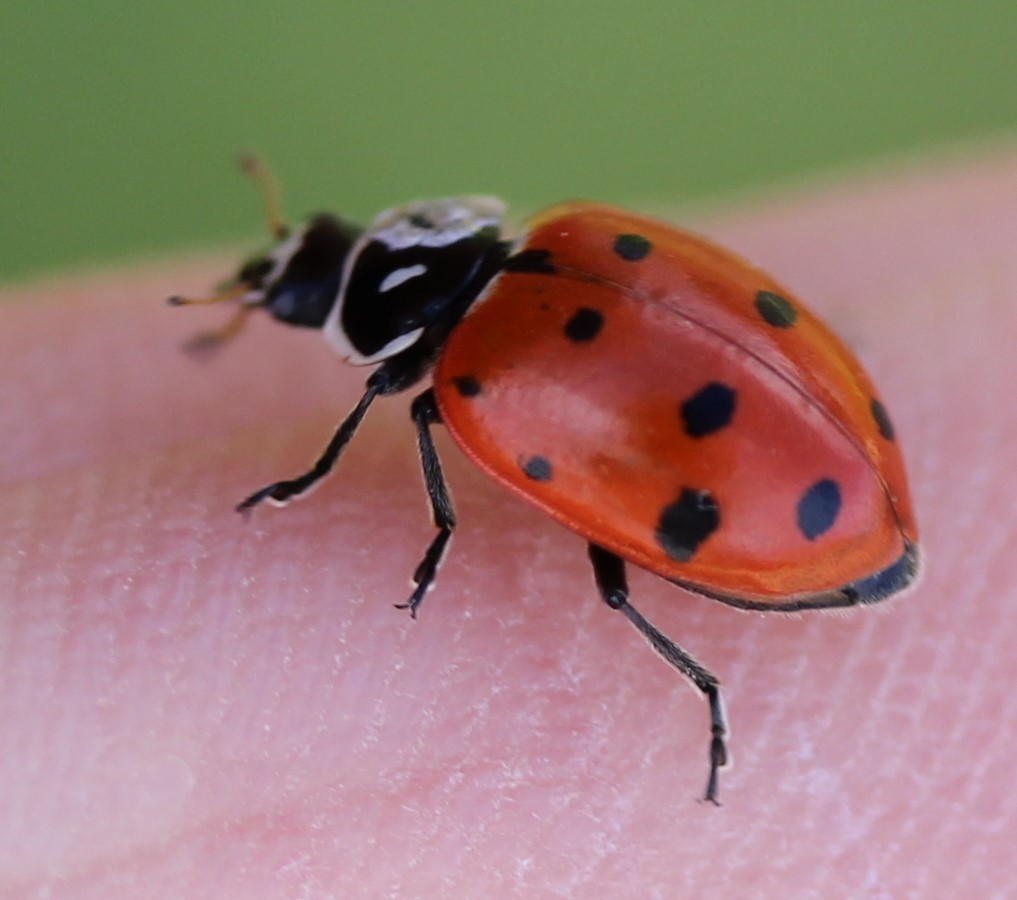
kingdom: Animalia
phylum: Arthropoda
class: Insecta
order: Coleoptera
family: Coccinellidae
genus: Hippodamia
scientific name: Hippodamia convergens
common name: Convergent lady beetle
